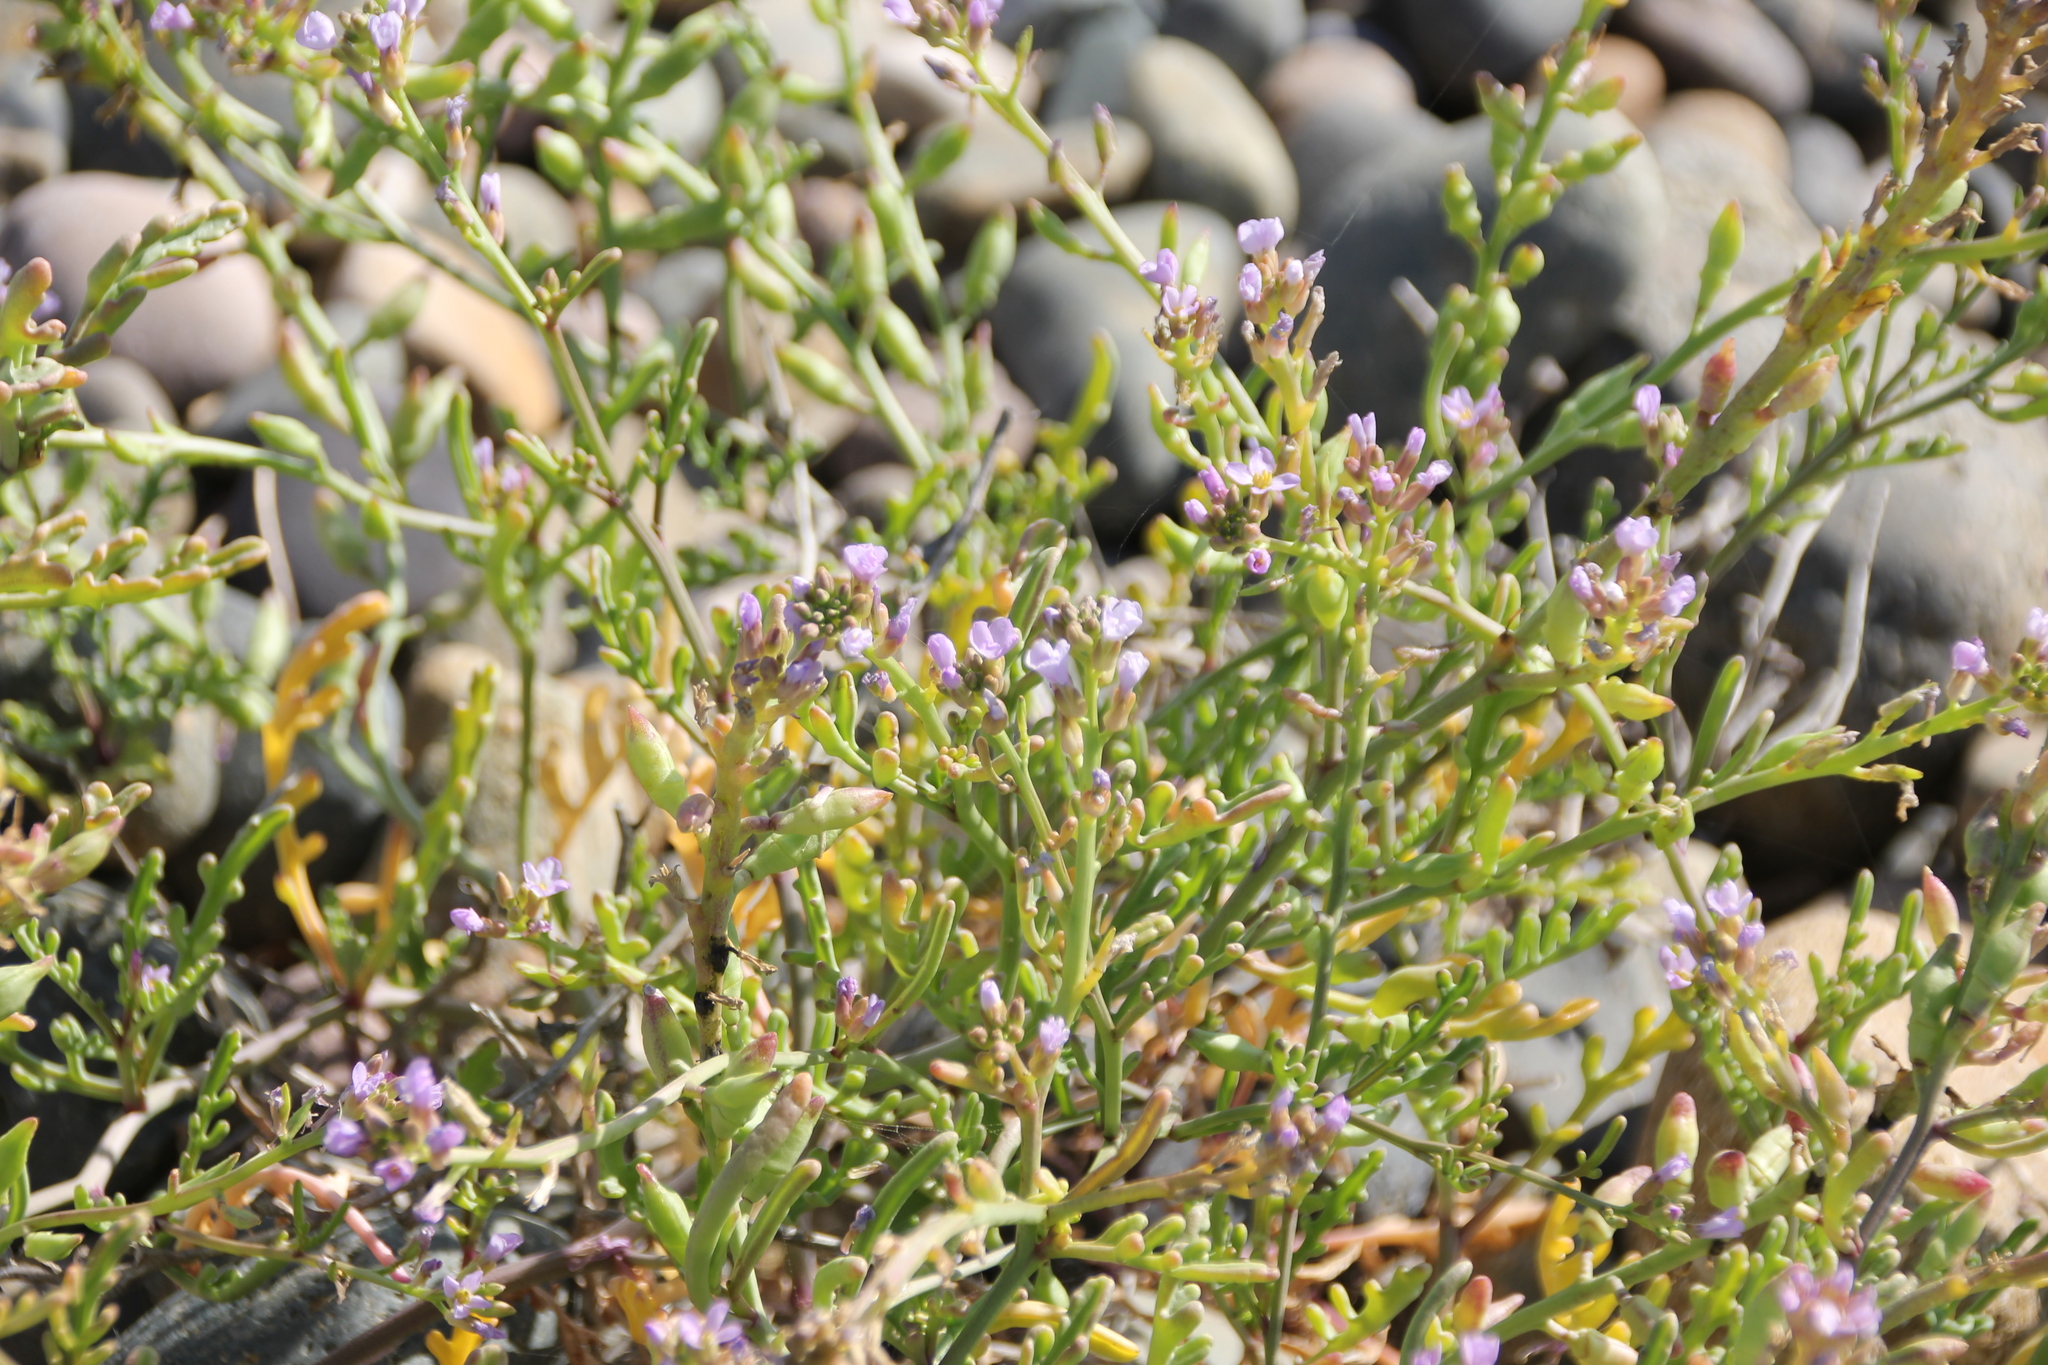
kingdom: Plantae
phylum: Tracheophyta
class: Magnoliopsida
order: Brassicales
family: Brassicaceae
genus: Cakile
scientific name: Cakile maritima
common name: Sea rocket
